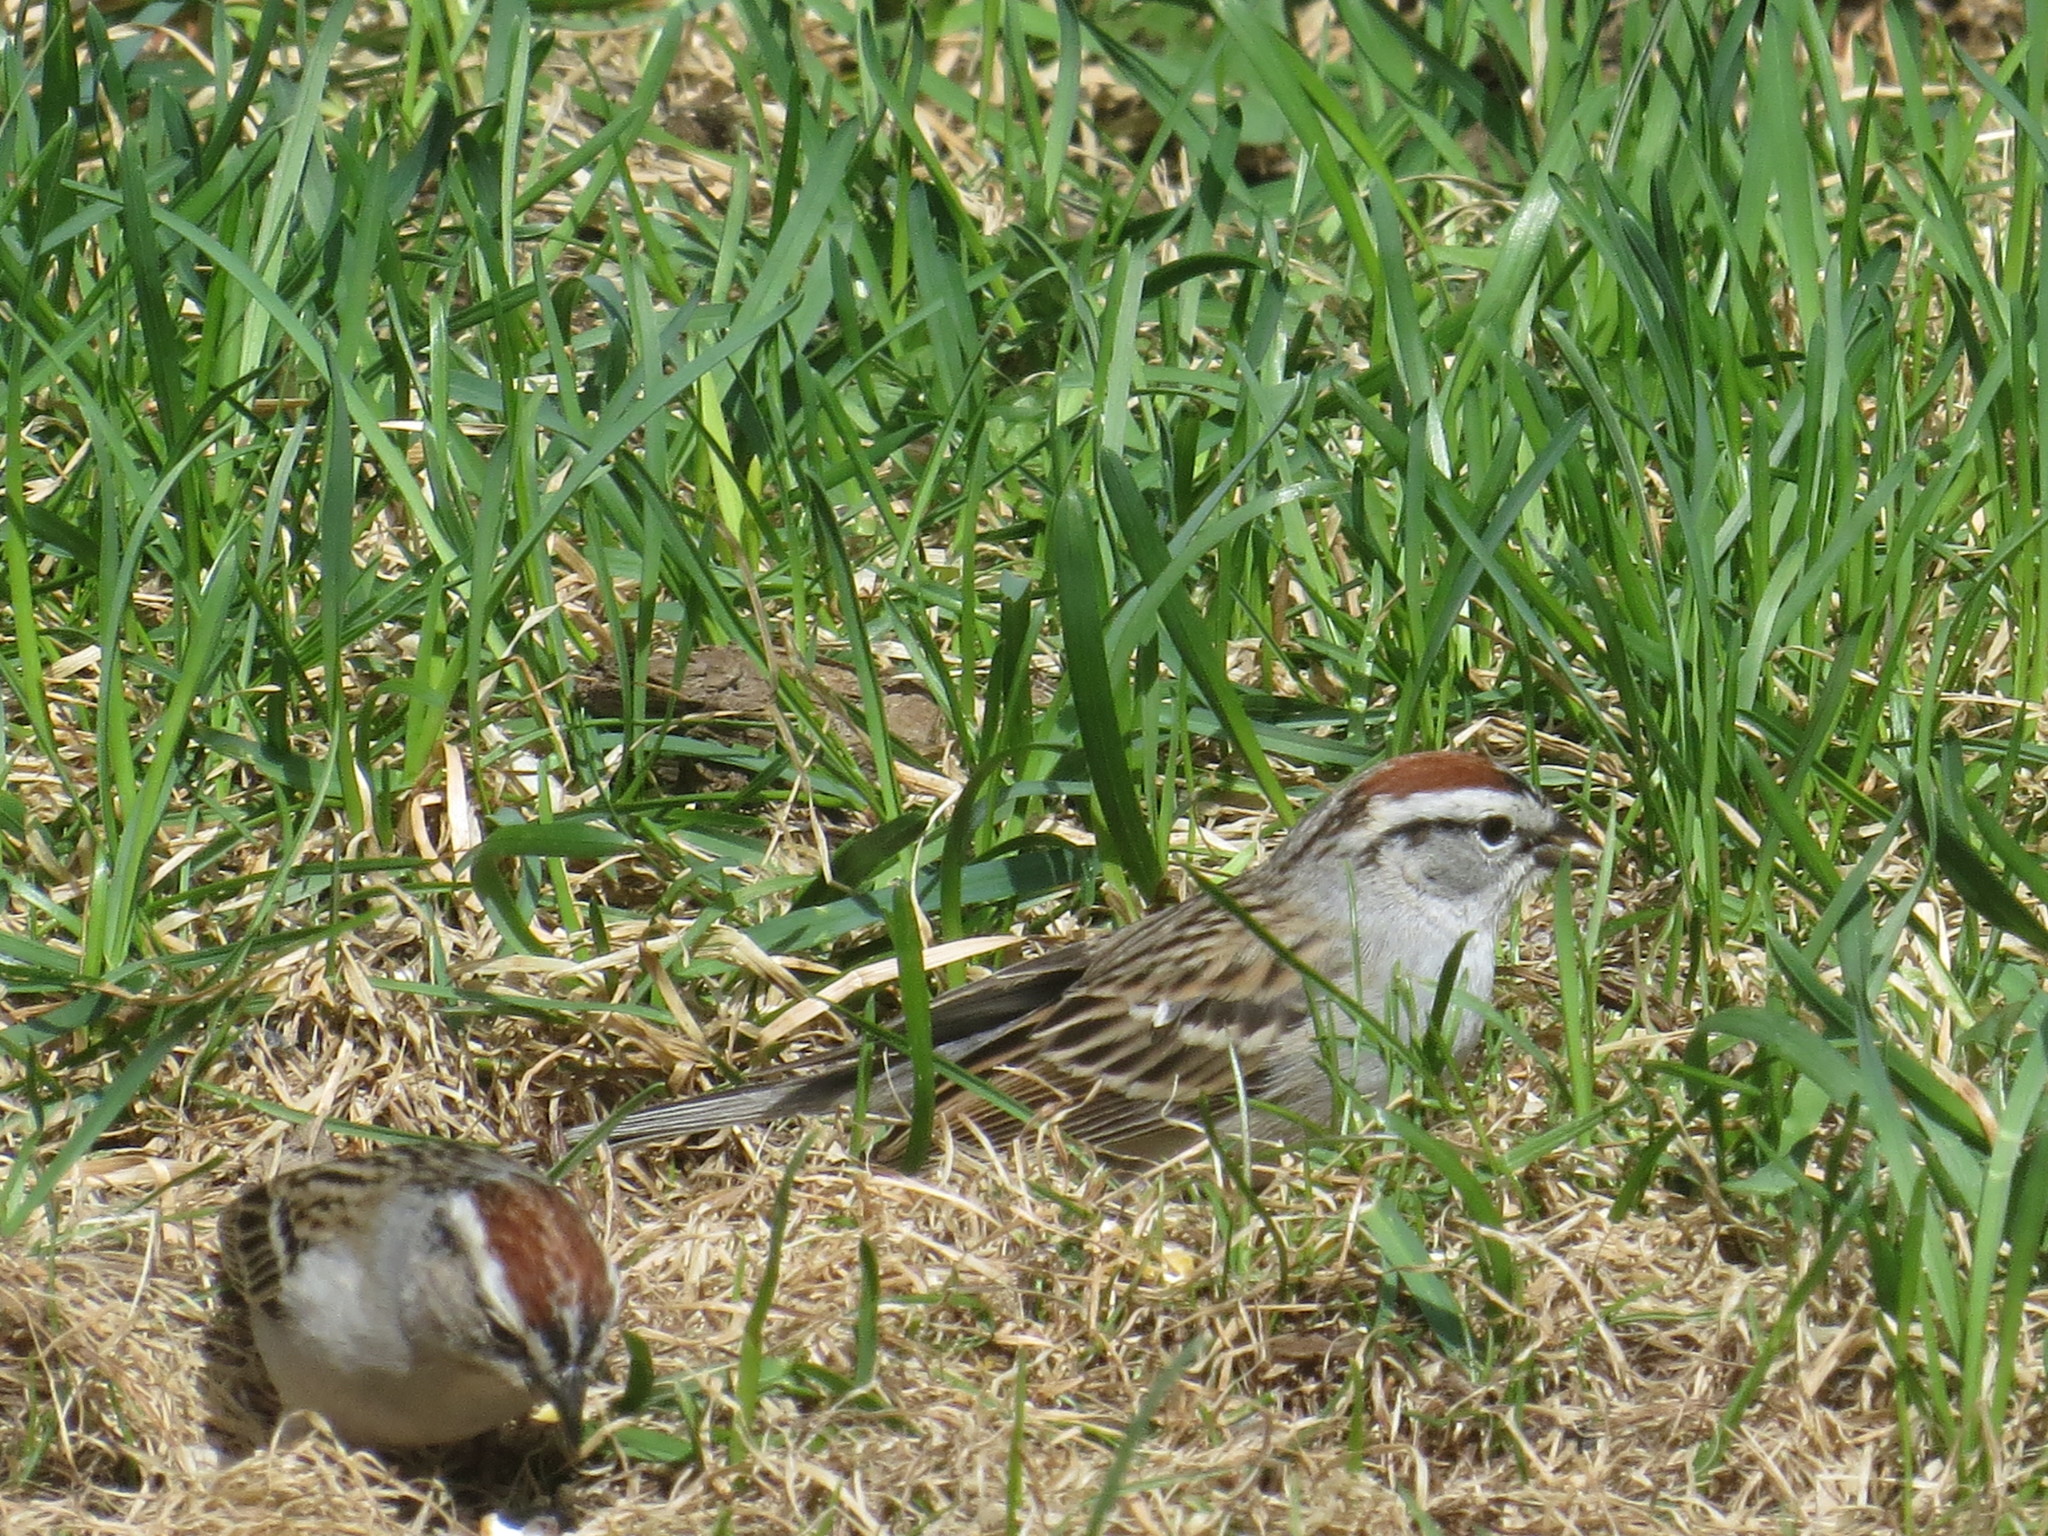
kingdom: Animalia
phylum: Chordata
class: Aves
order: Passeriformes
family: Passerellidae
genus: Spizella
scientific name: Spizella passerina
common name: Chipping sparrow
